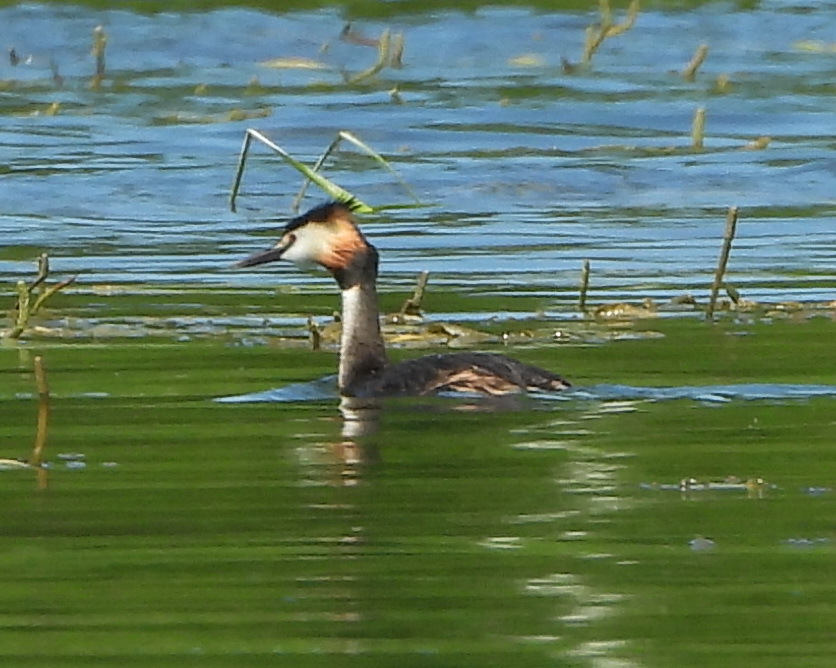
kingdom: Animalia
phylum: Chordata
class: Aves
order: Podicipediformes
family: Podicipedidae
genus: Podiceps
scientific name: Podiceps cristatus
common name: Great crested grebe
